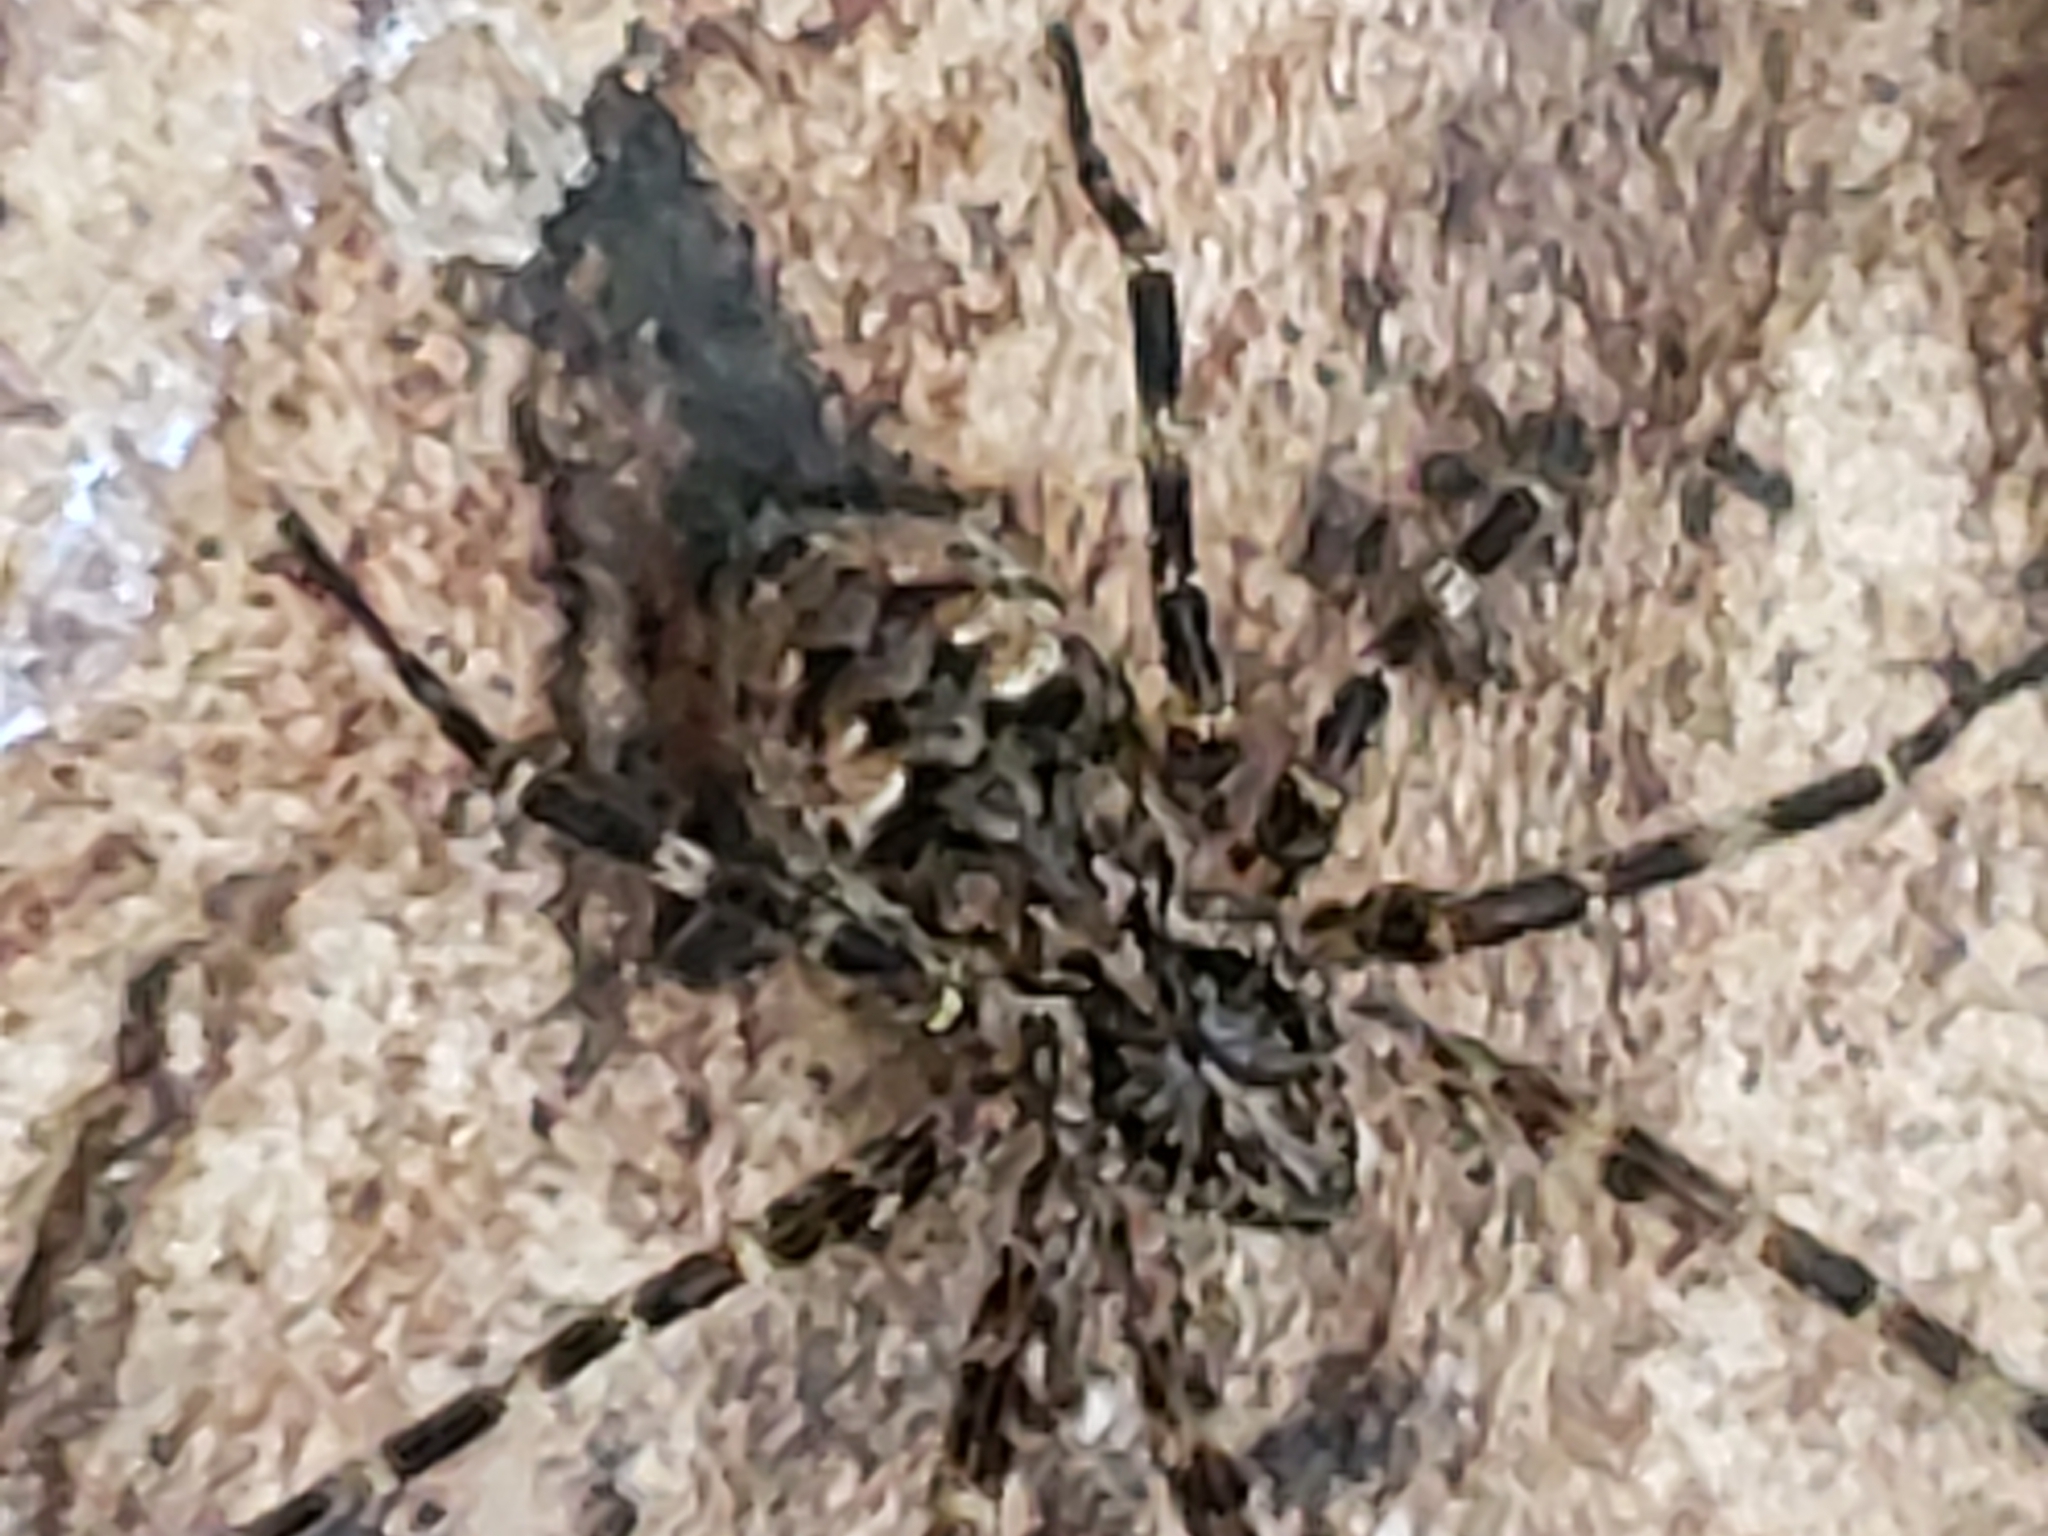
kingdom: Animalia
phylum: Arthropoda
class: Arachnida
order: Araneae
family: Pisauridae
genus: Dolomedes
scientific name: Dolomedes tenebrosus
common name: Dark fishing spider
